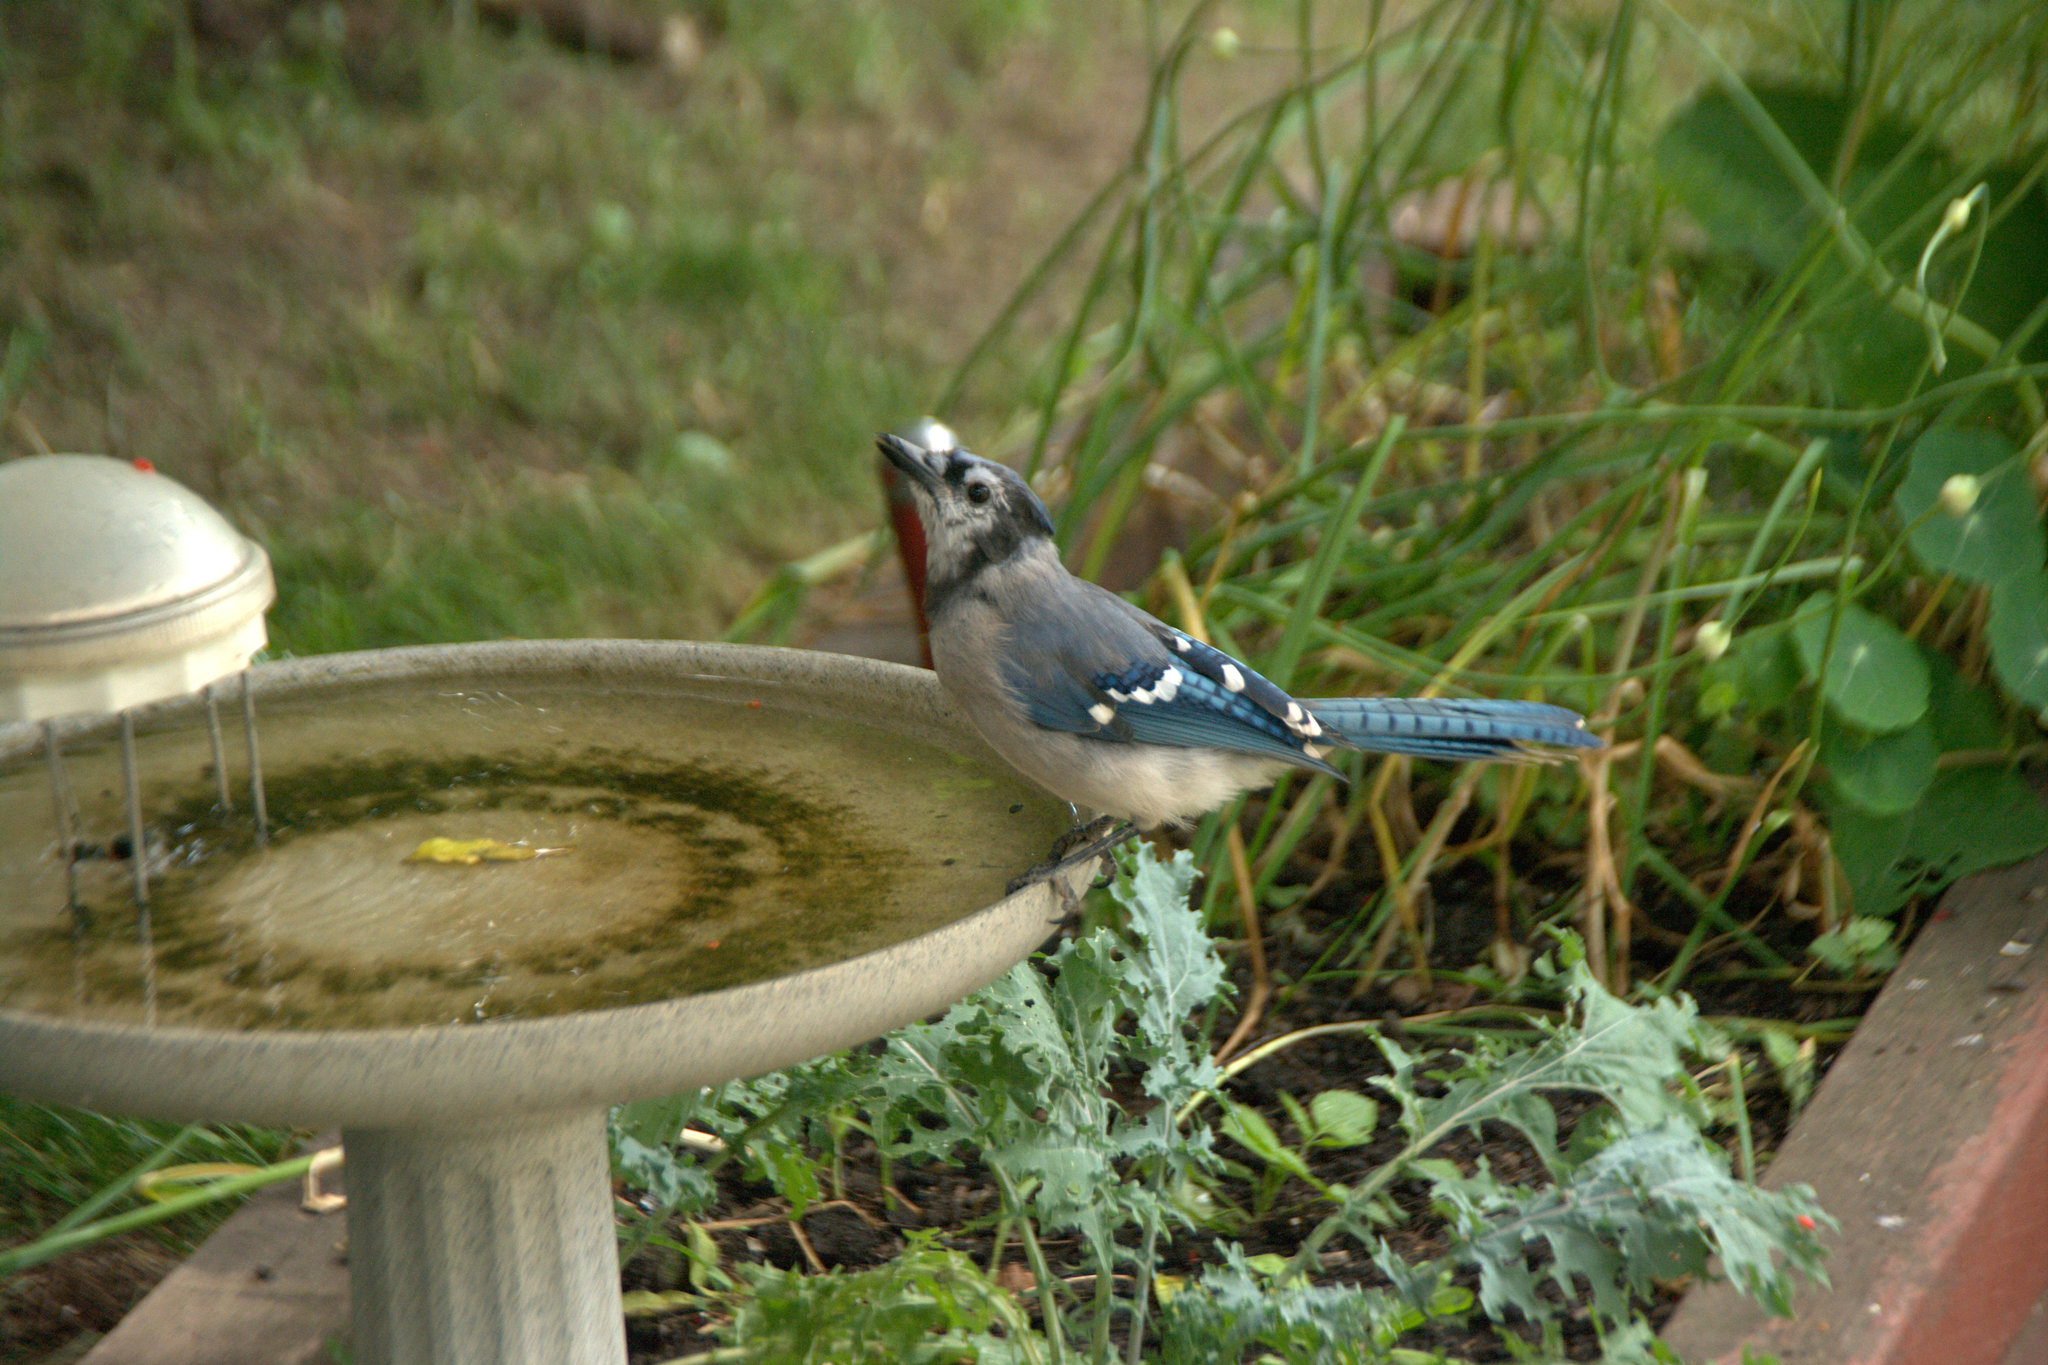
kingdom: Animalia
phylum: Chordata
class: Aves
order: Passeriformes
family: Corvidae
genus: Cyanocitta
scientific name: Cyanocitta cristata
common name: Blue jay
